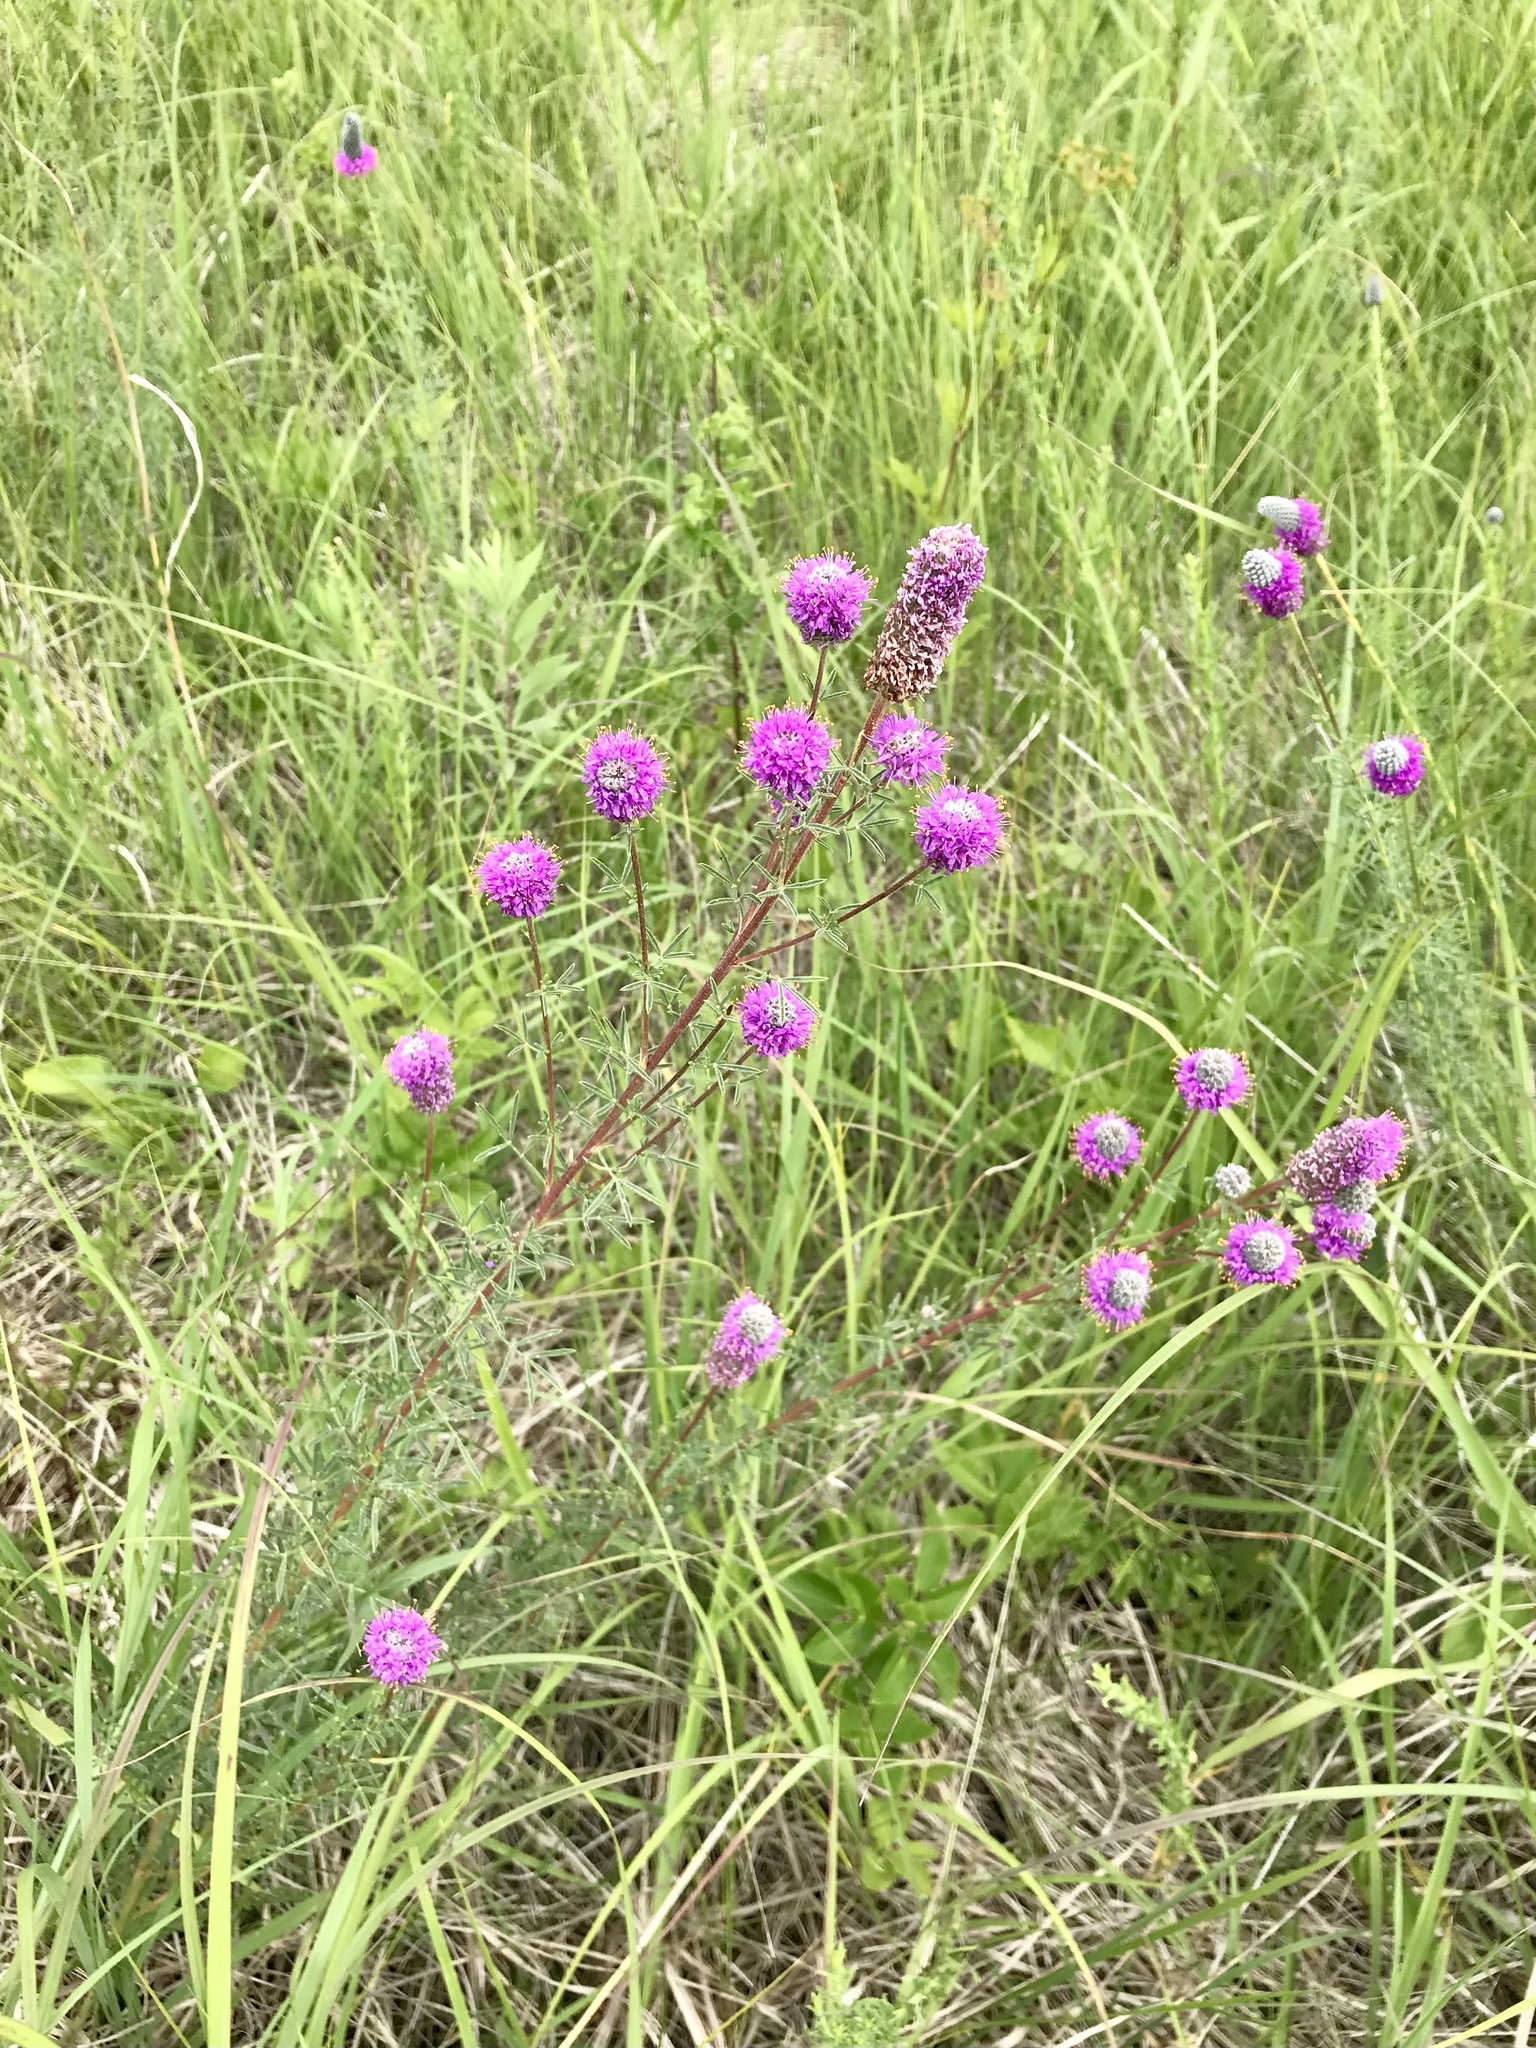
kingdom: Plantae
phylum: Tracheophyta
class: Magnoliopsida
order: Fabales
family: Fabaceae
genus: Dalea
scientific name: Dalea purpurea
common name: Purple prairie-clover
